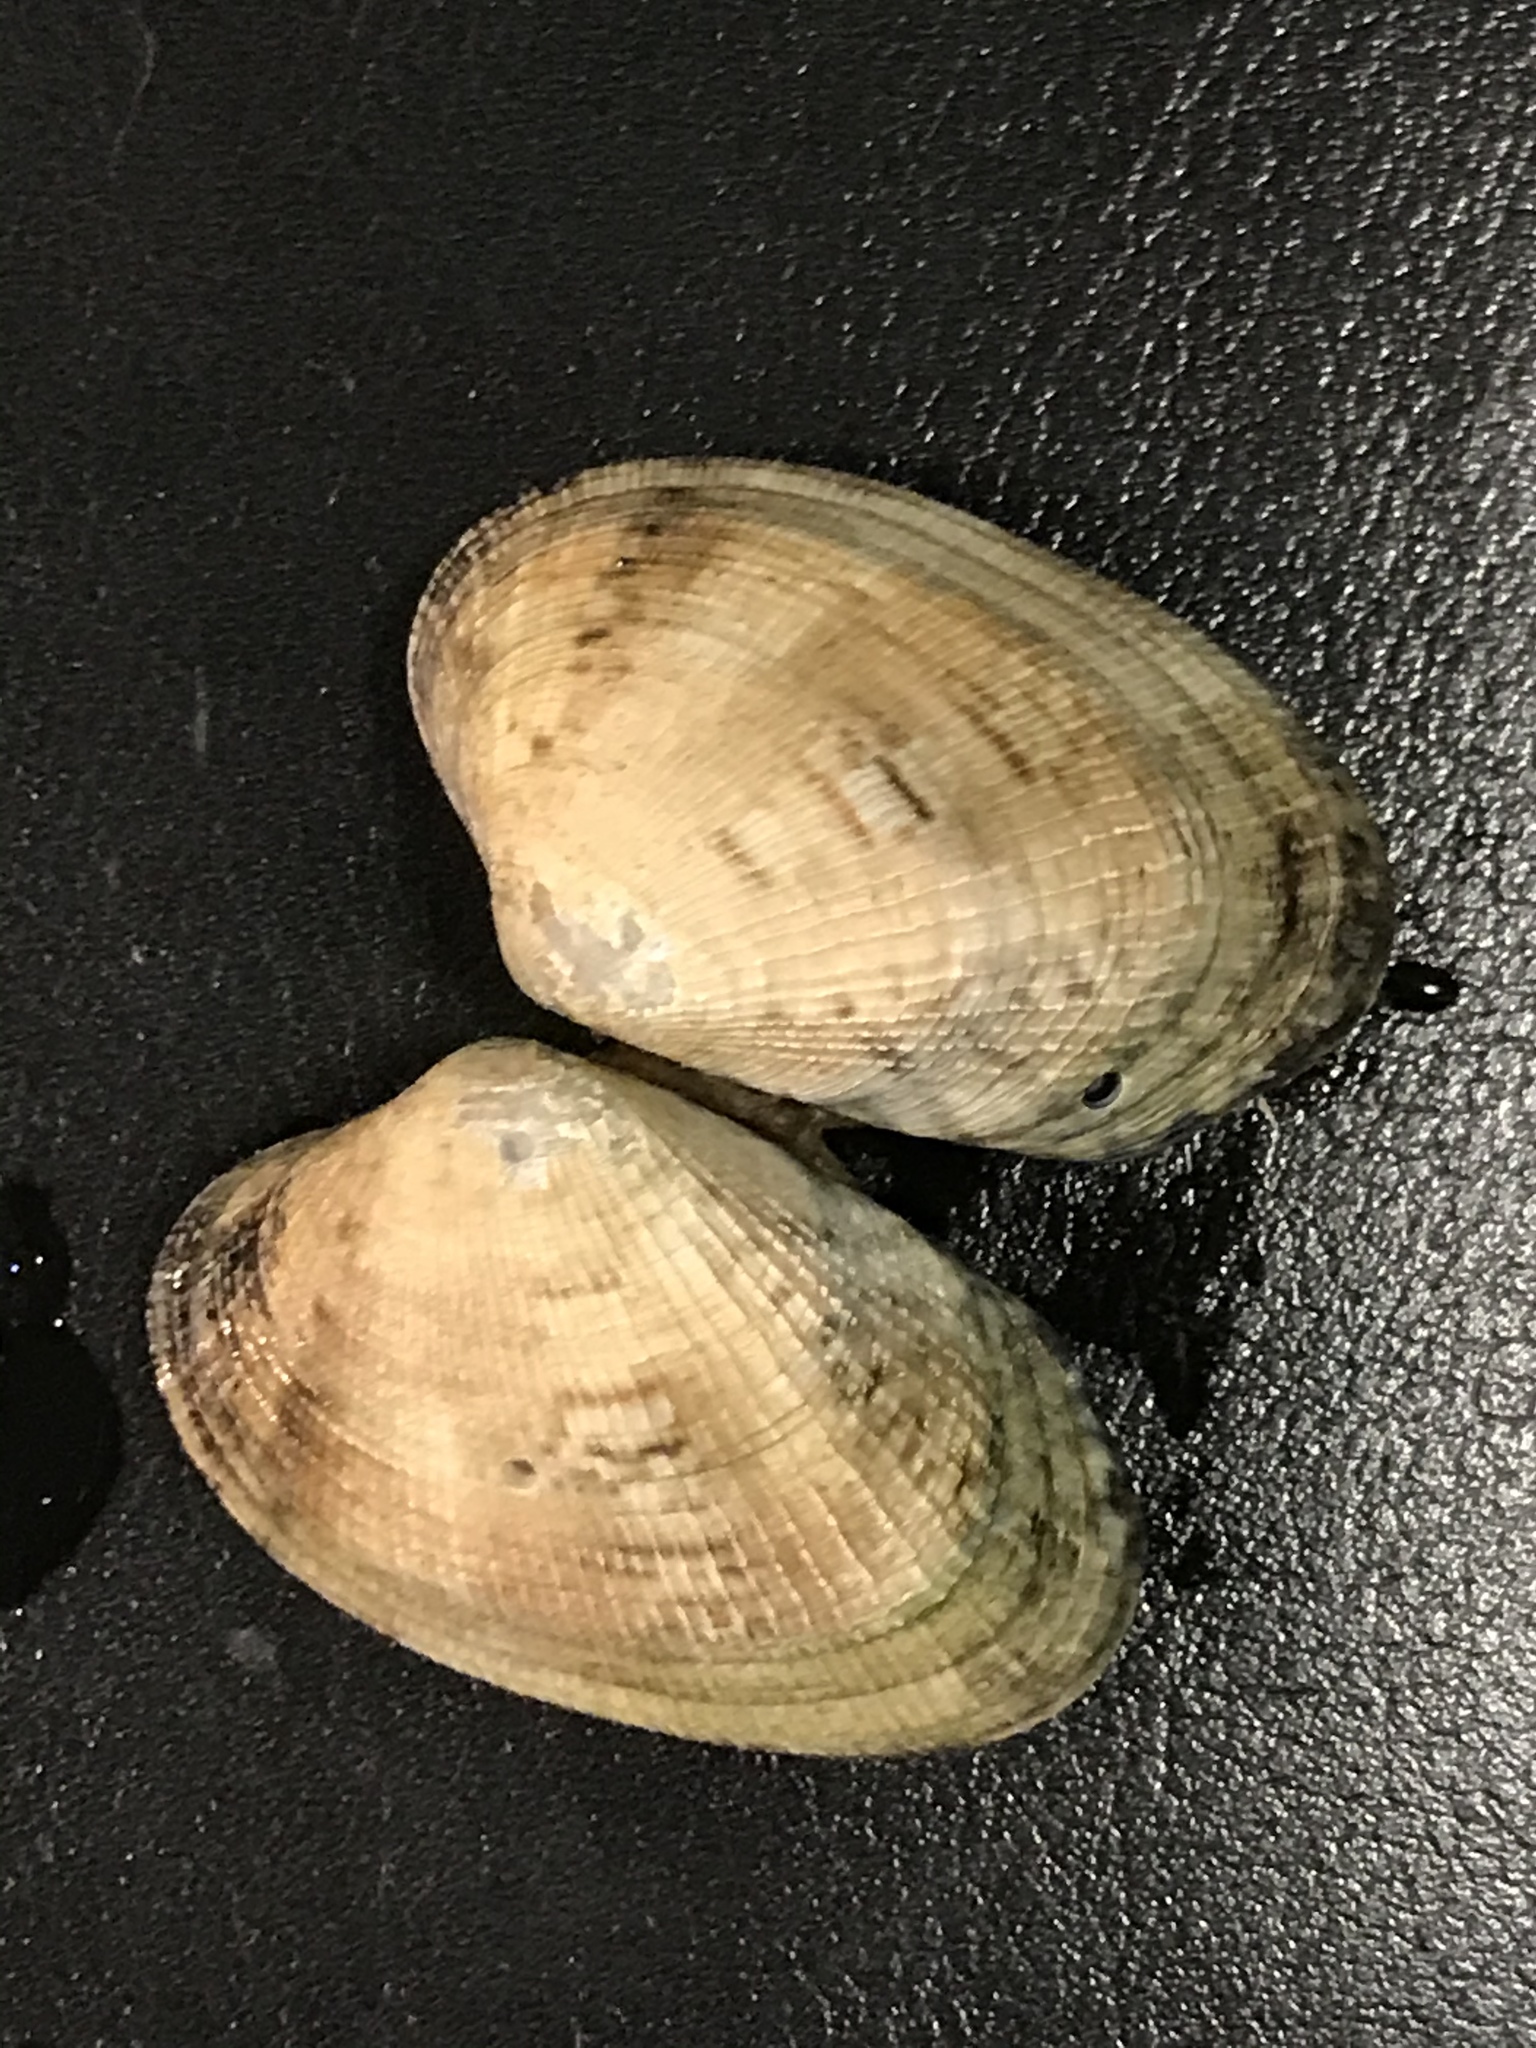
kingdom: Animalia
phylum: Mollusca
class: Bivalvia
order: Venerida
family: Veneridae
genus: Ruditapes
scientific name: Ruditapes philippinarum
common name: Manila clam
